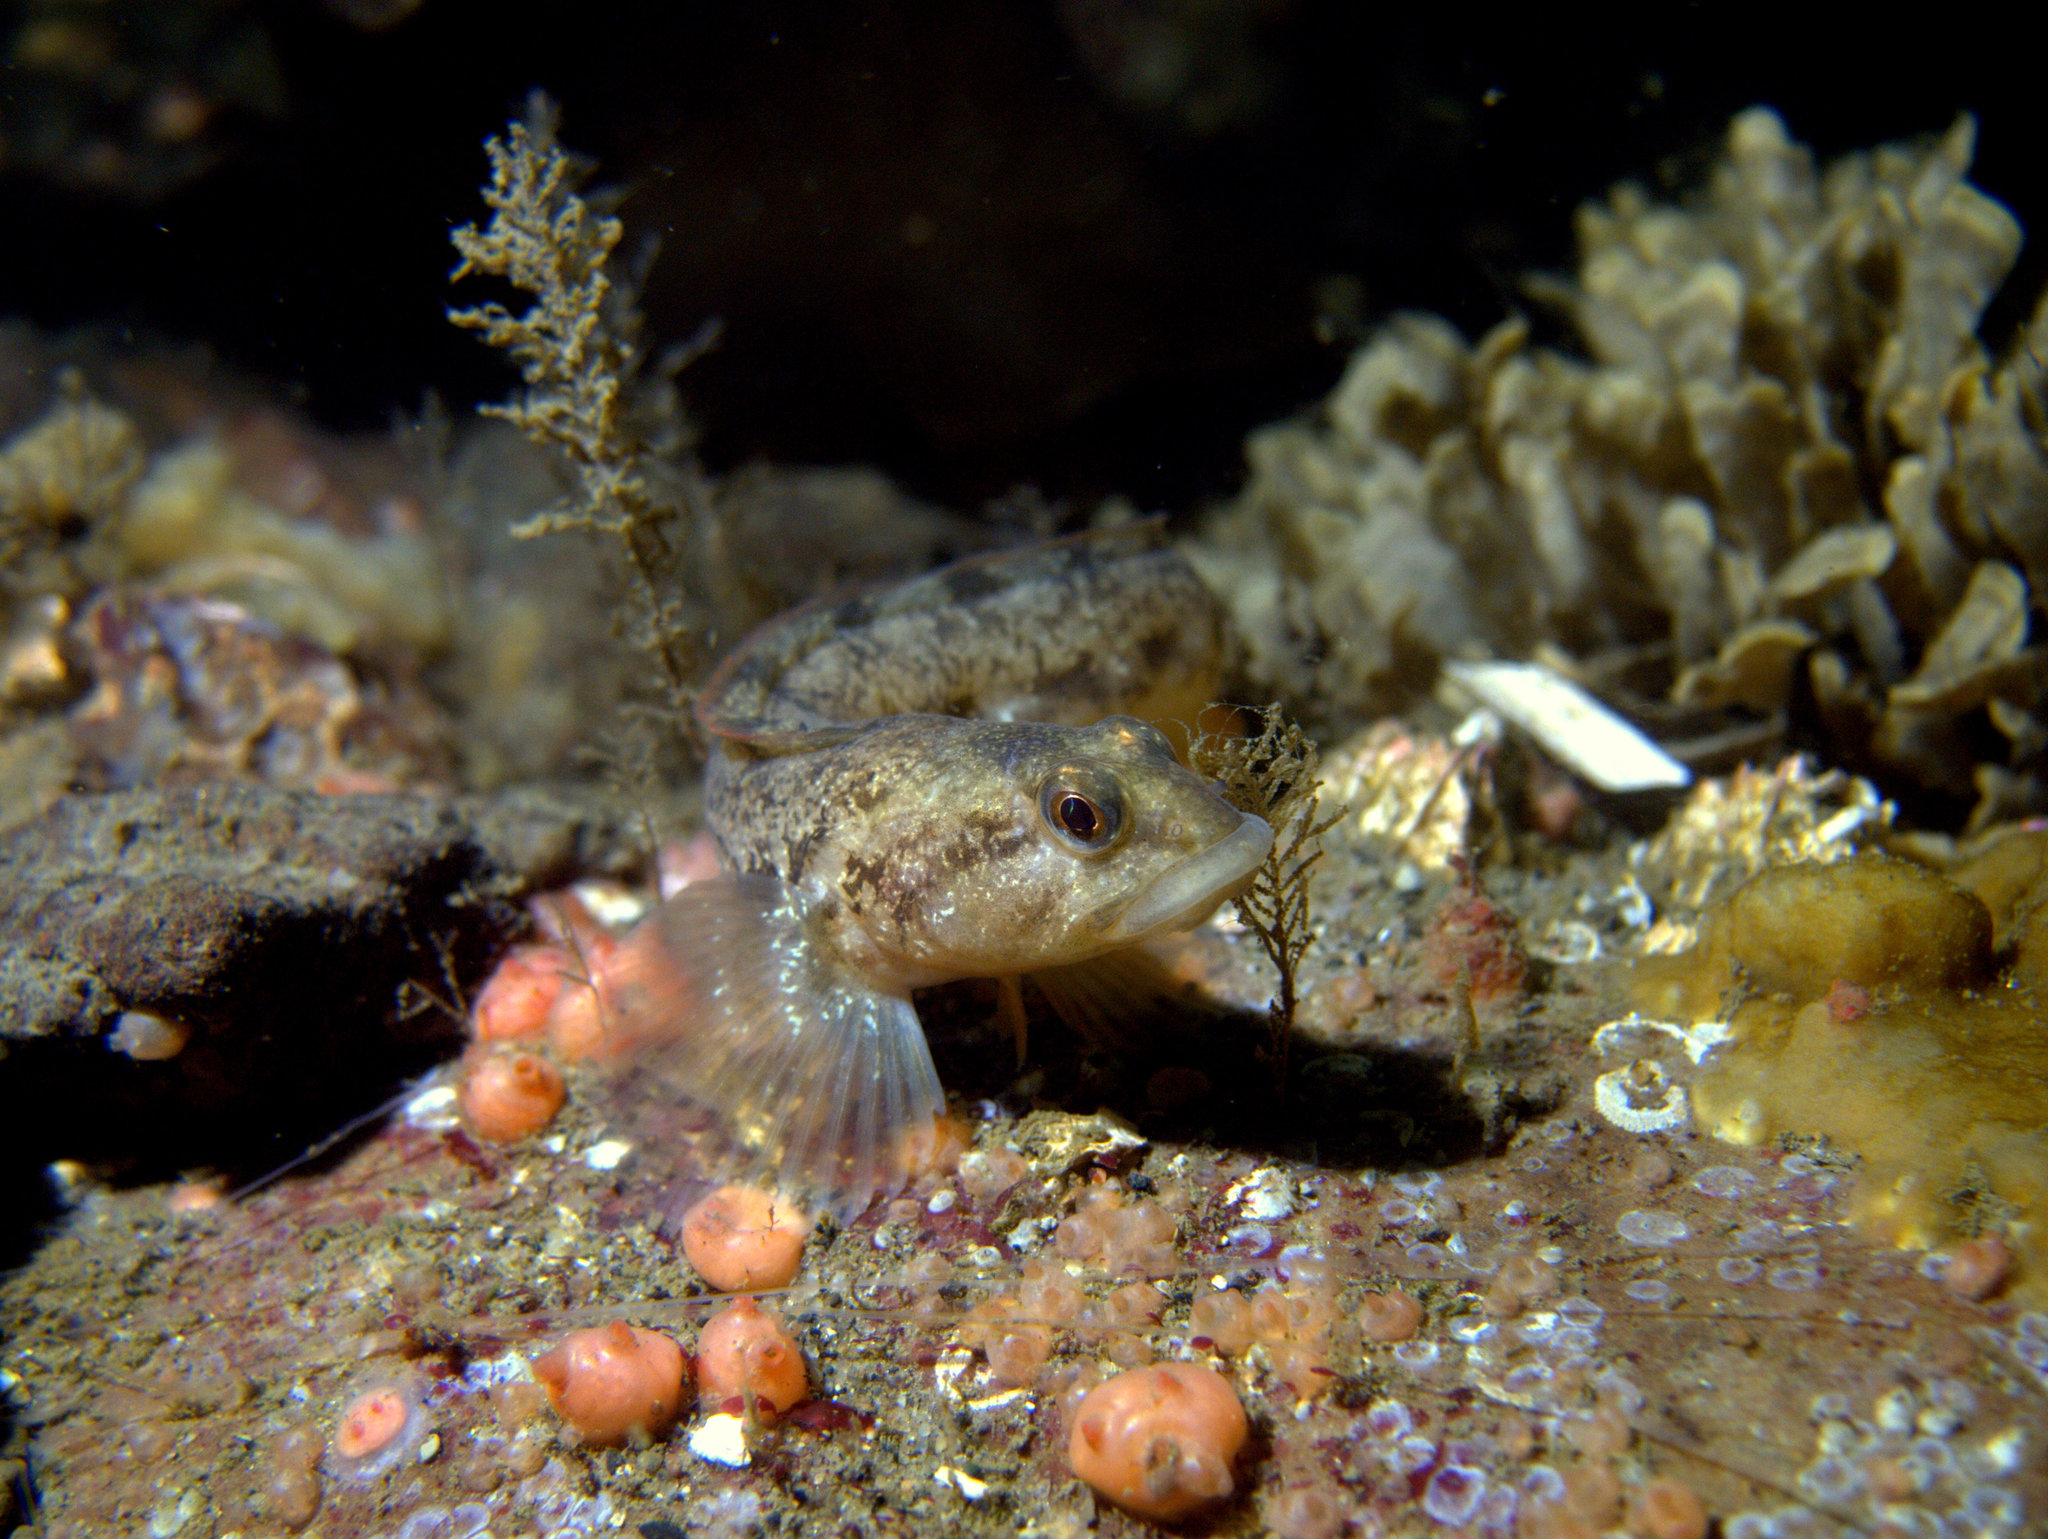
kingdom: Animalia
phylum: Chordata
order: Perciformes
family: Zoarcidae
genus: Zoarces
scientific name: Zoarces viviparus
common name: Viviparous blenny
